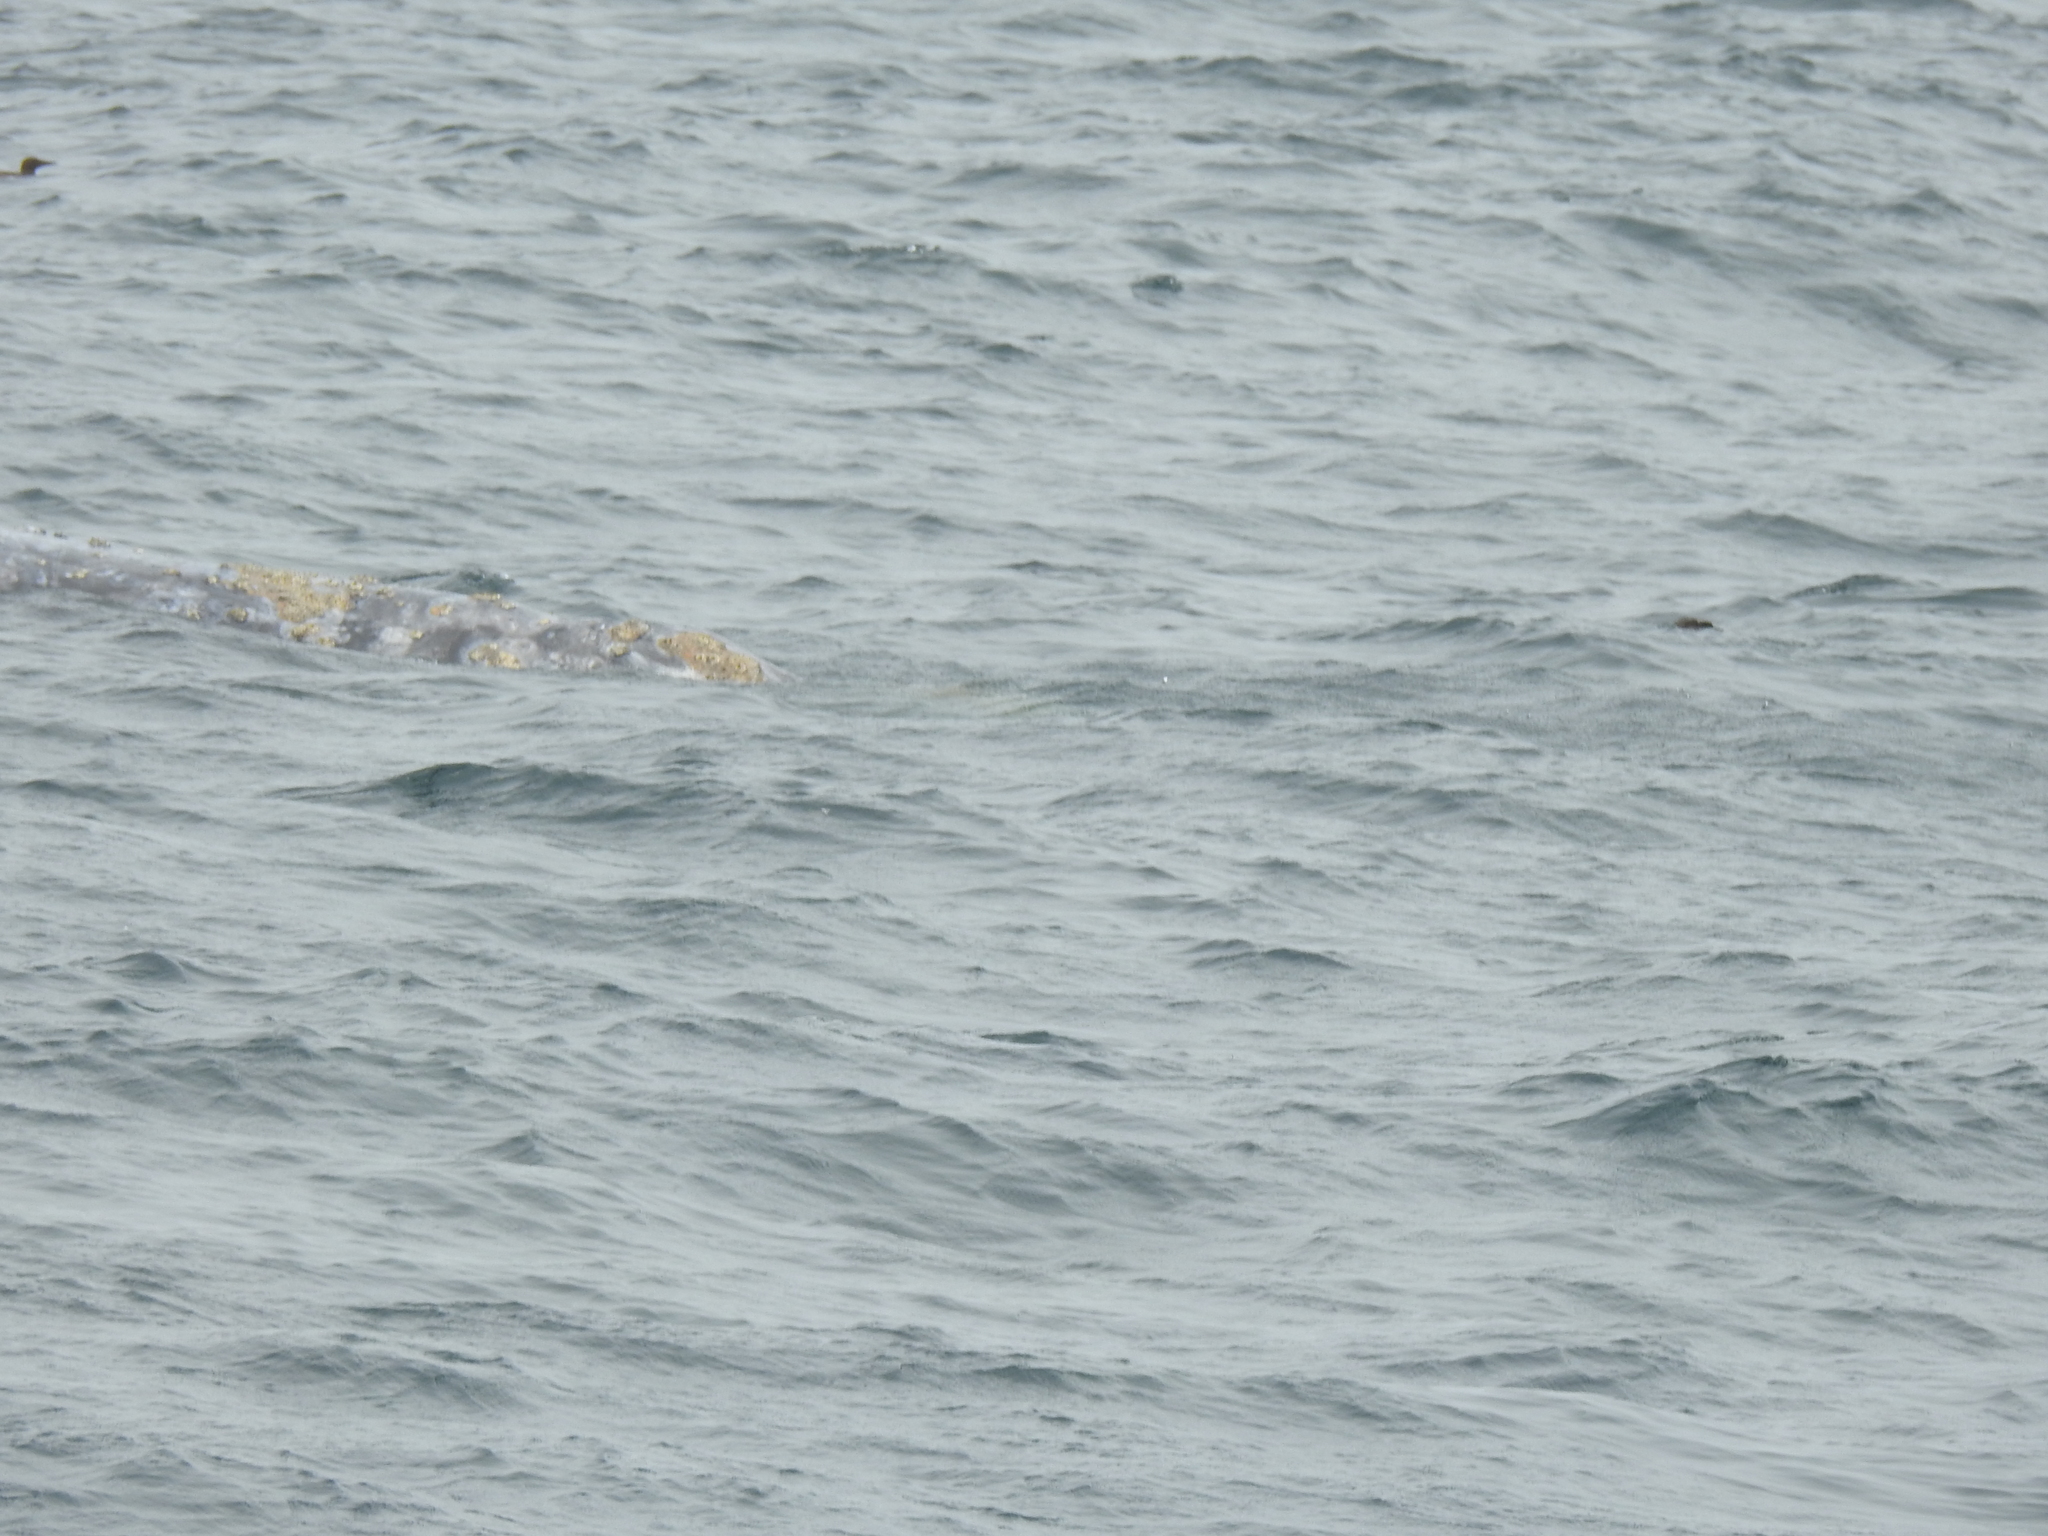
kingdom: Animalia
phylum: Chordata
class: Mammalia
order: Cetacea
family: Eschrichtiidae
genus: Eschrichtius
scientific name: Eschrichtius robustus
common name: Gray whale
